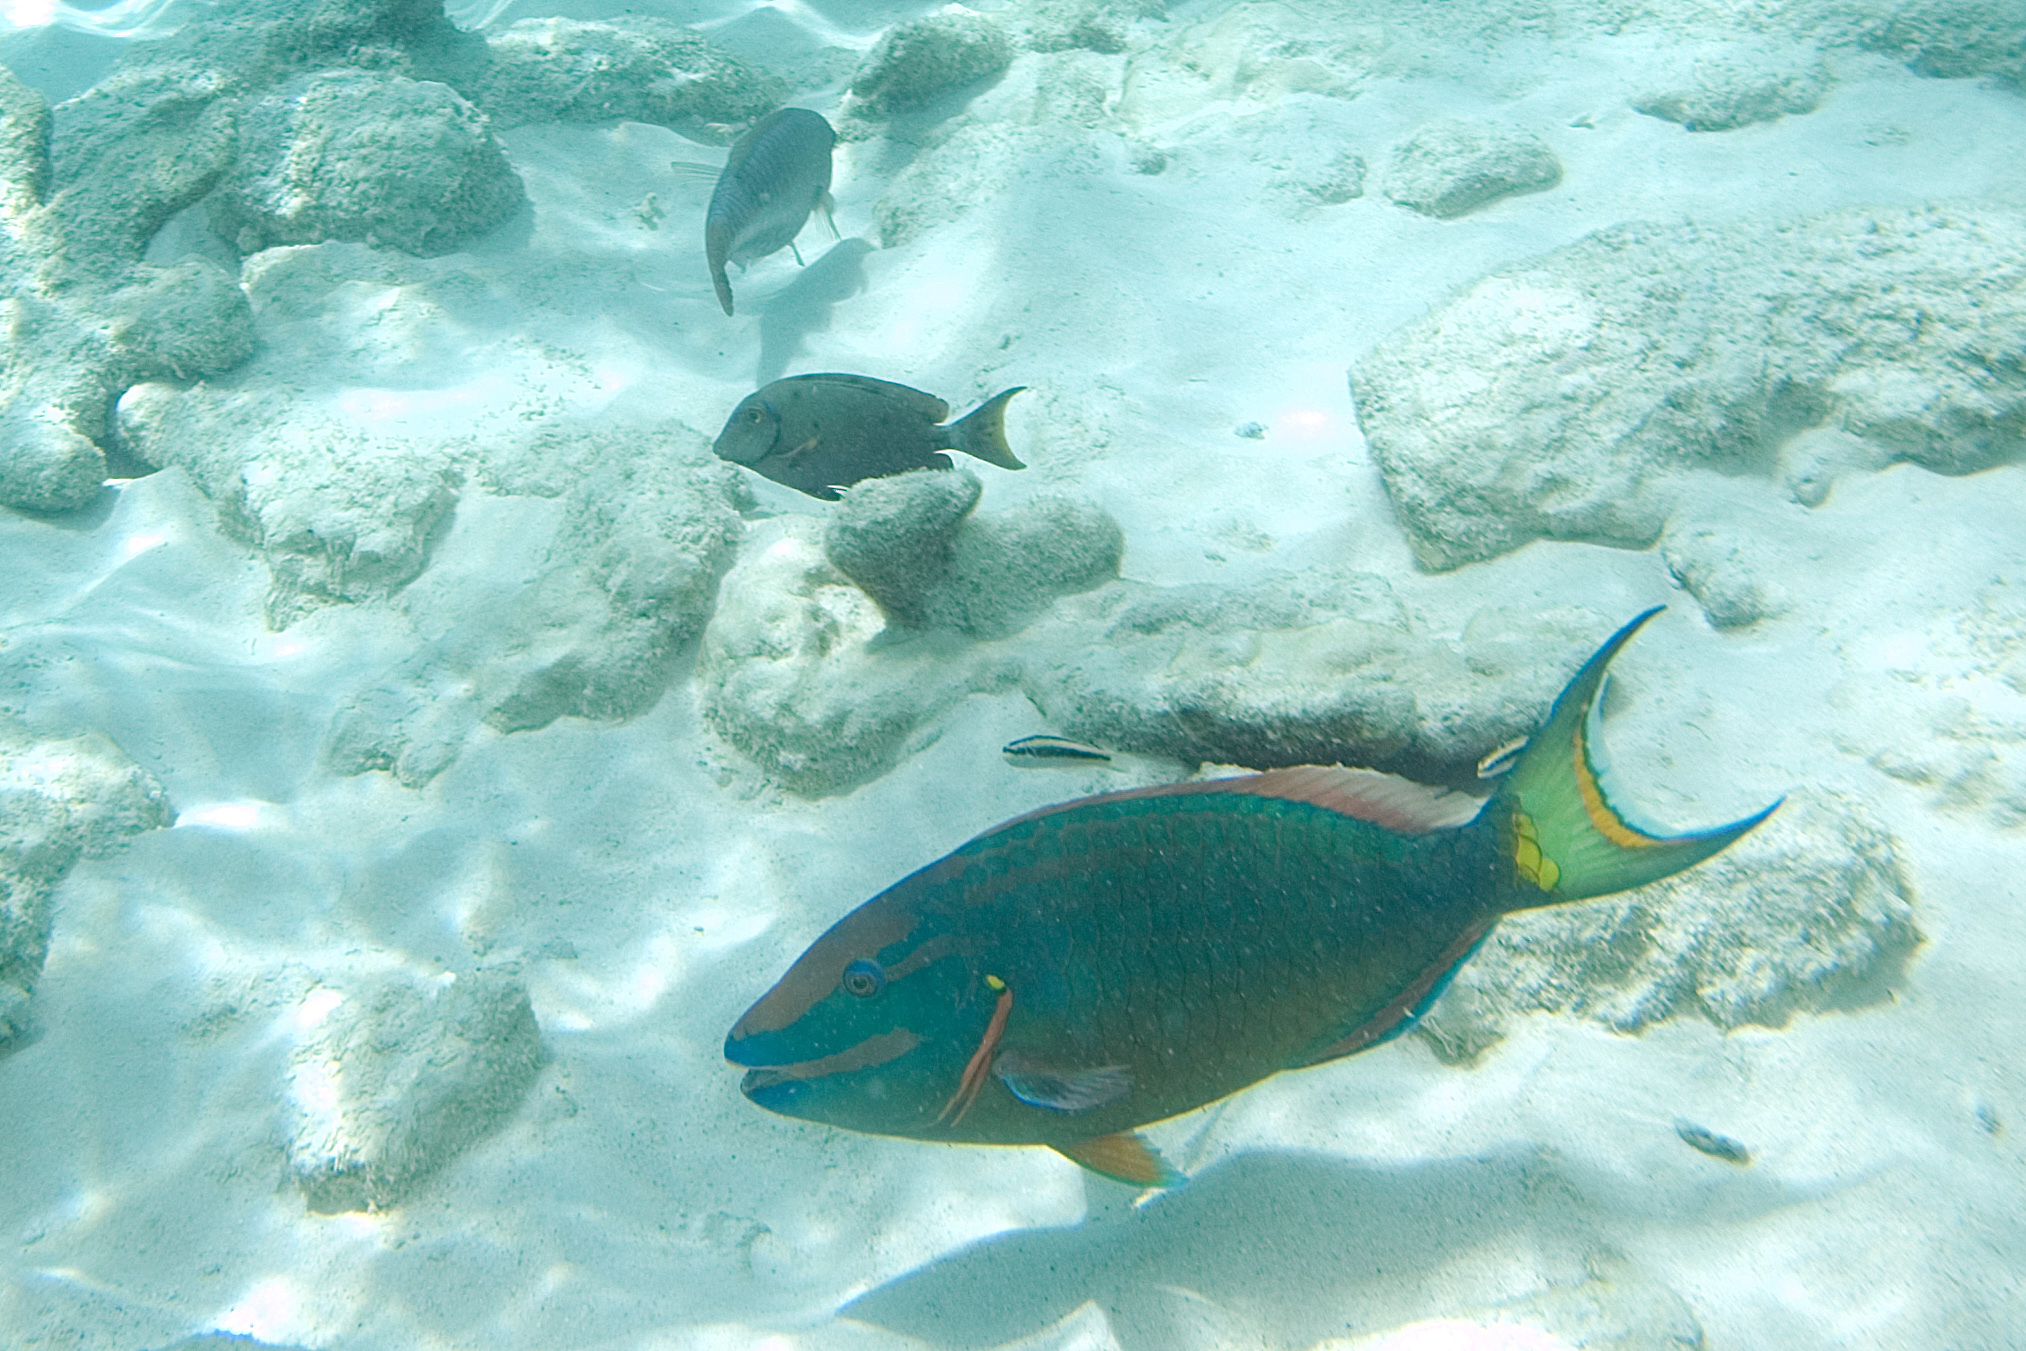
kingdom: Animalia
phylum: Chordata
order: Perciformes
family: Scaridae
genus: Sparisoma
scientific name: Sparisoma viride
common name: Stoplight parrotfish
